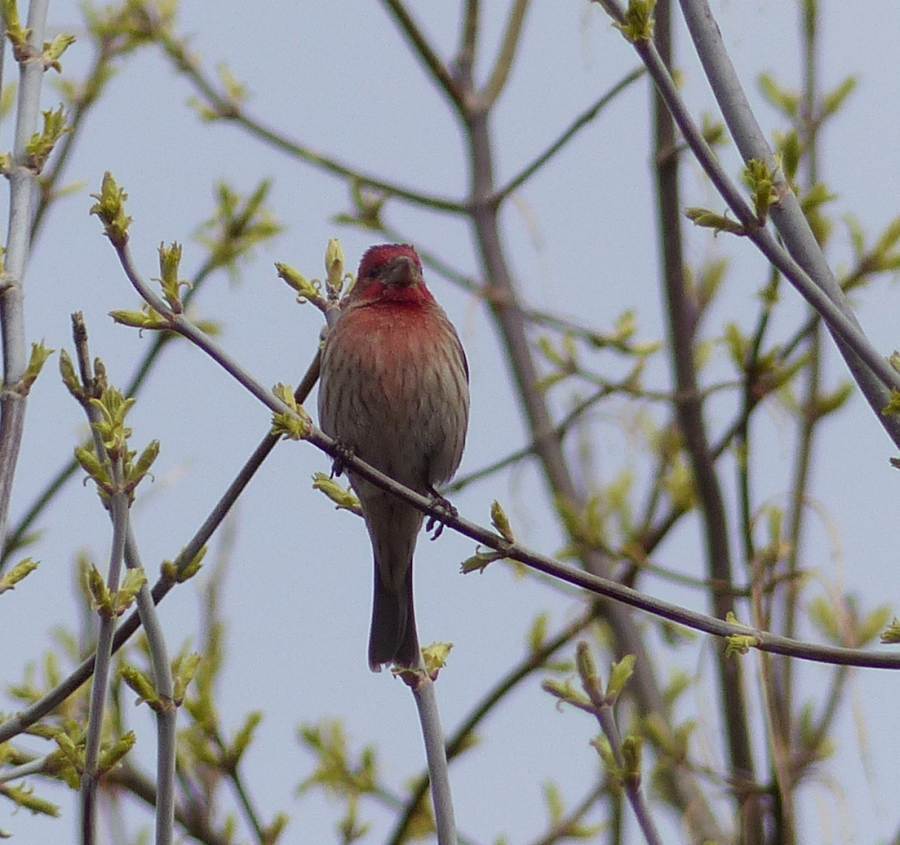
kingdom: Animalia
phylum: Chordata
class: Aves
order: Passeriformes
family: Fringillidae
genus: Haemorhous
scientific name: Haemorhous mexicanus
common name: House finch
